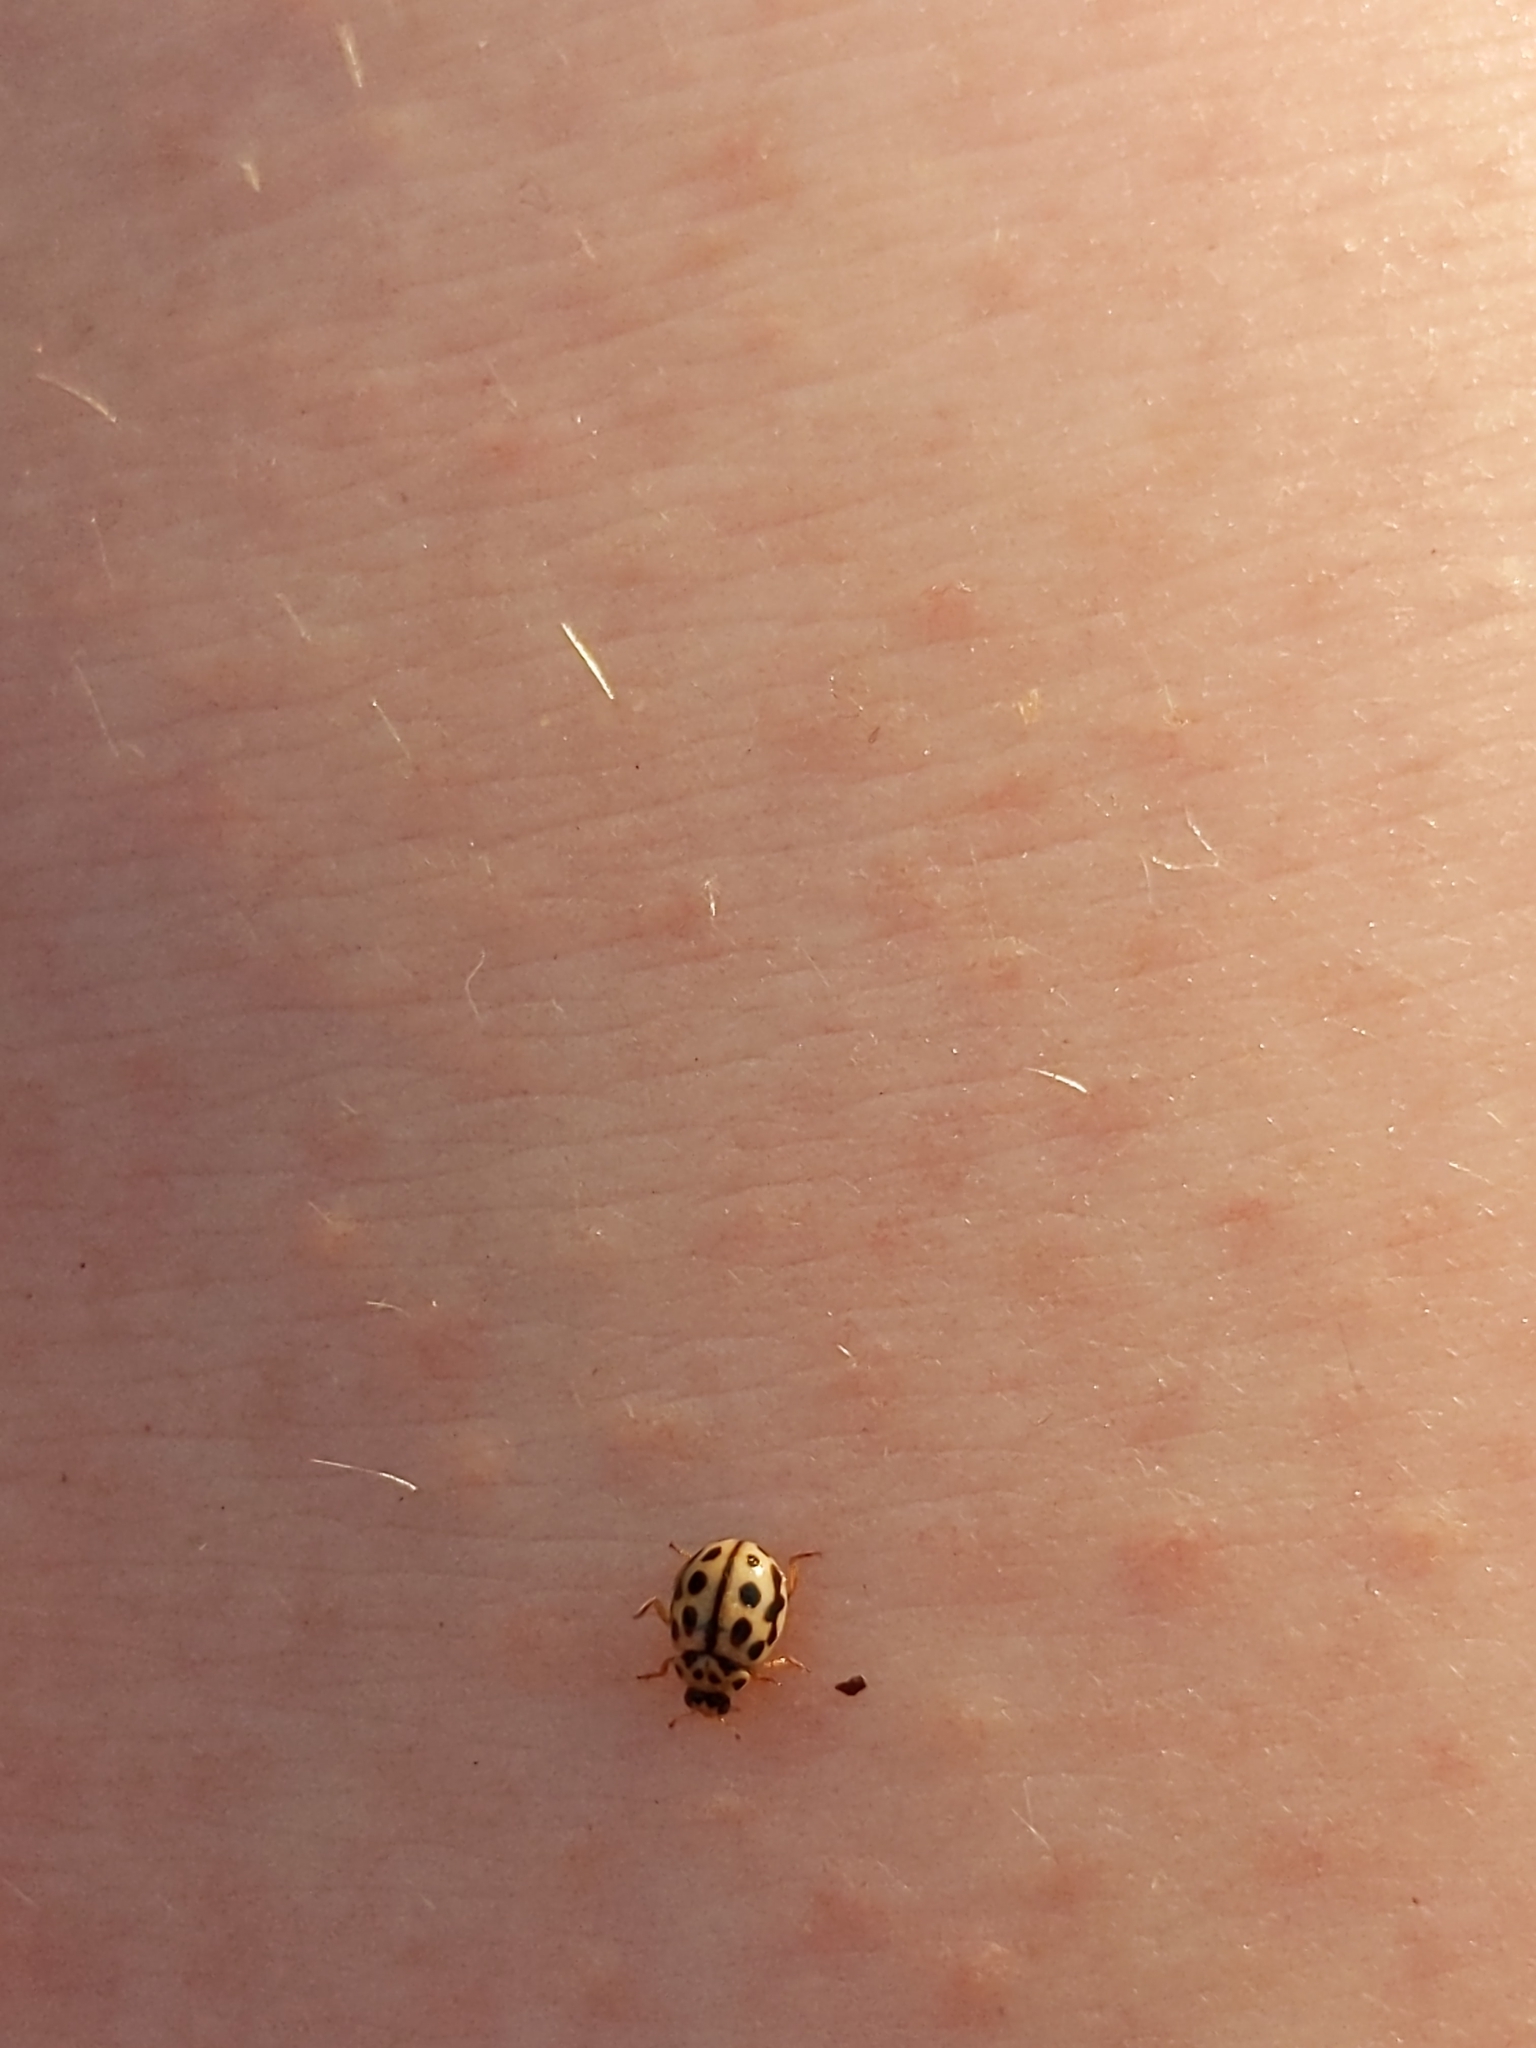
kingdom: Animalia
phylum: Arthropoda
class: Insecta
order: Coleoptera
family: Coccinellidae
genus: Tytthaspis
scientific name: Tytthaspis sedecimpunctata
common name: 16-spot ladybird
